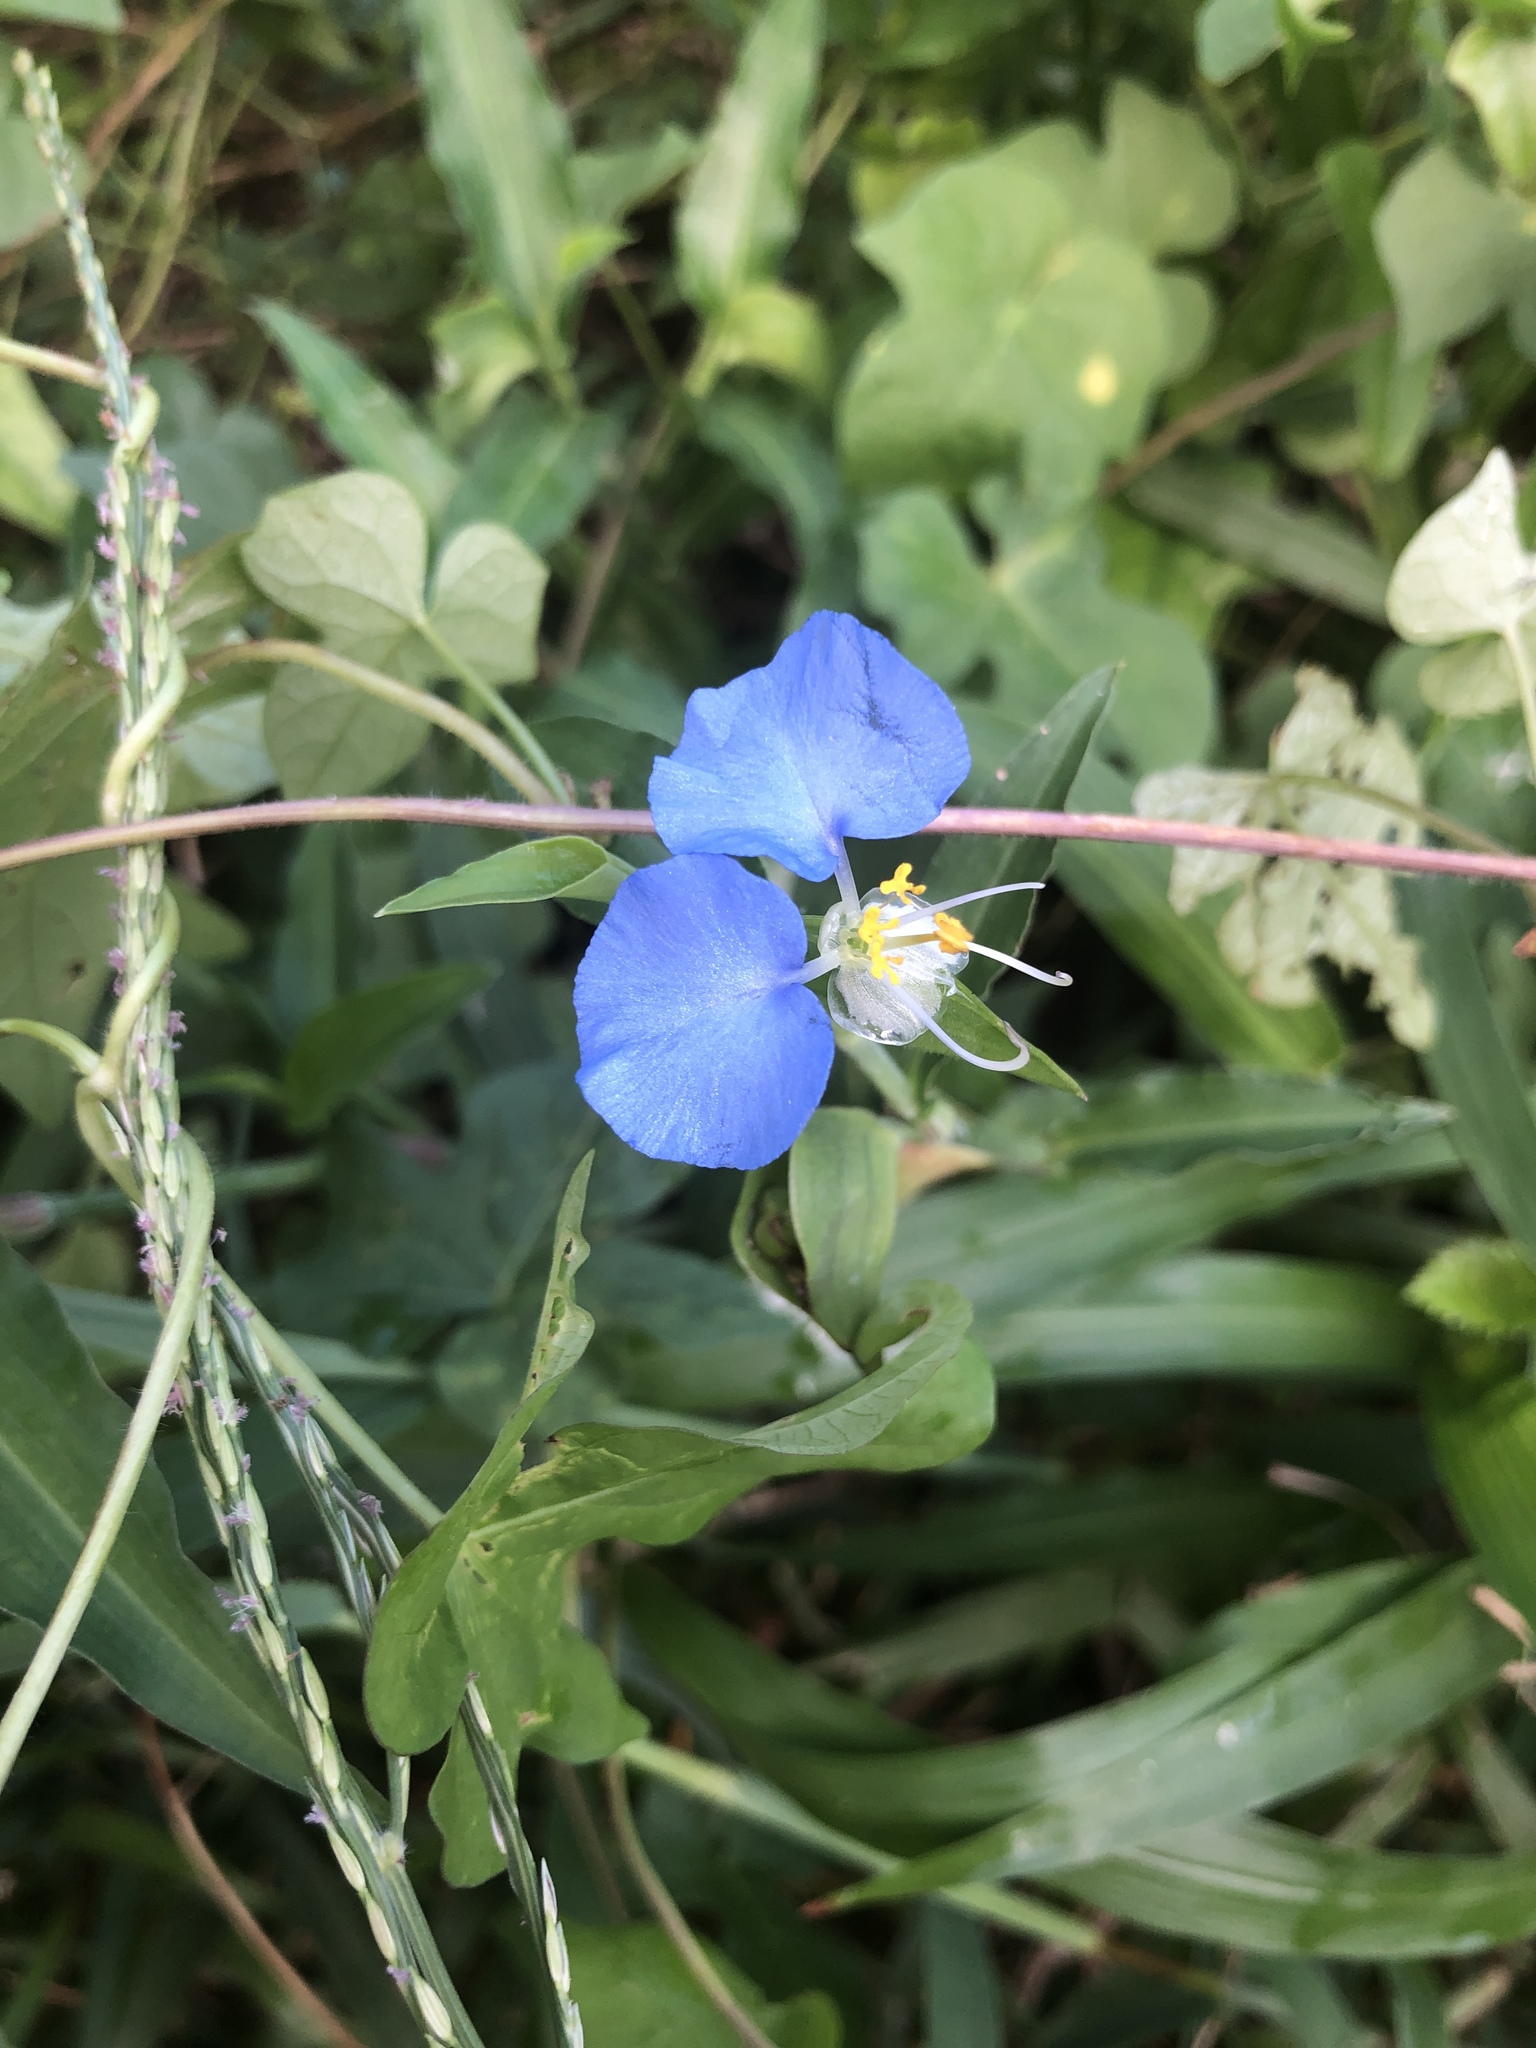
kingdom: Plantae
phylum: Tracheophyta
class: Liliopsida
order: Commelinales
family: Commelinaceae
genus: Commelina
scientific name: Commelina erecta
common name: Blousel blommetjie
